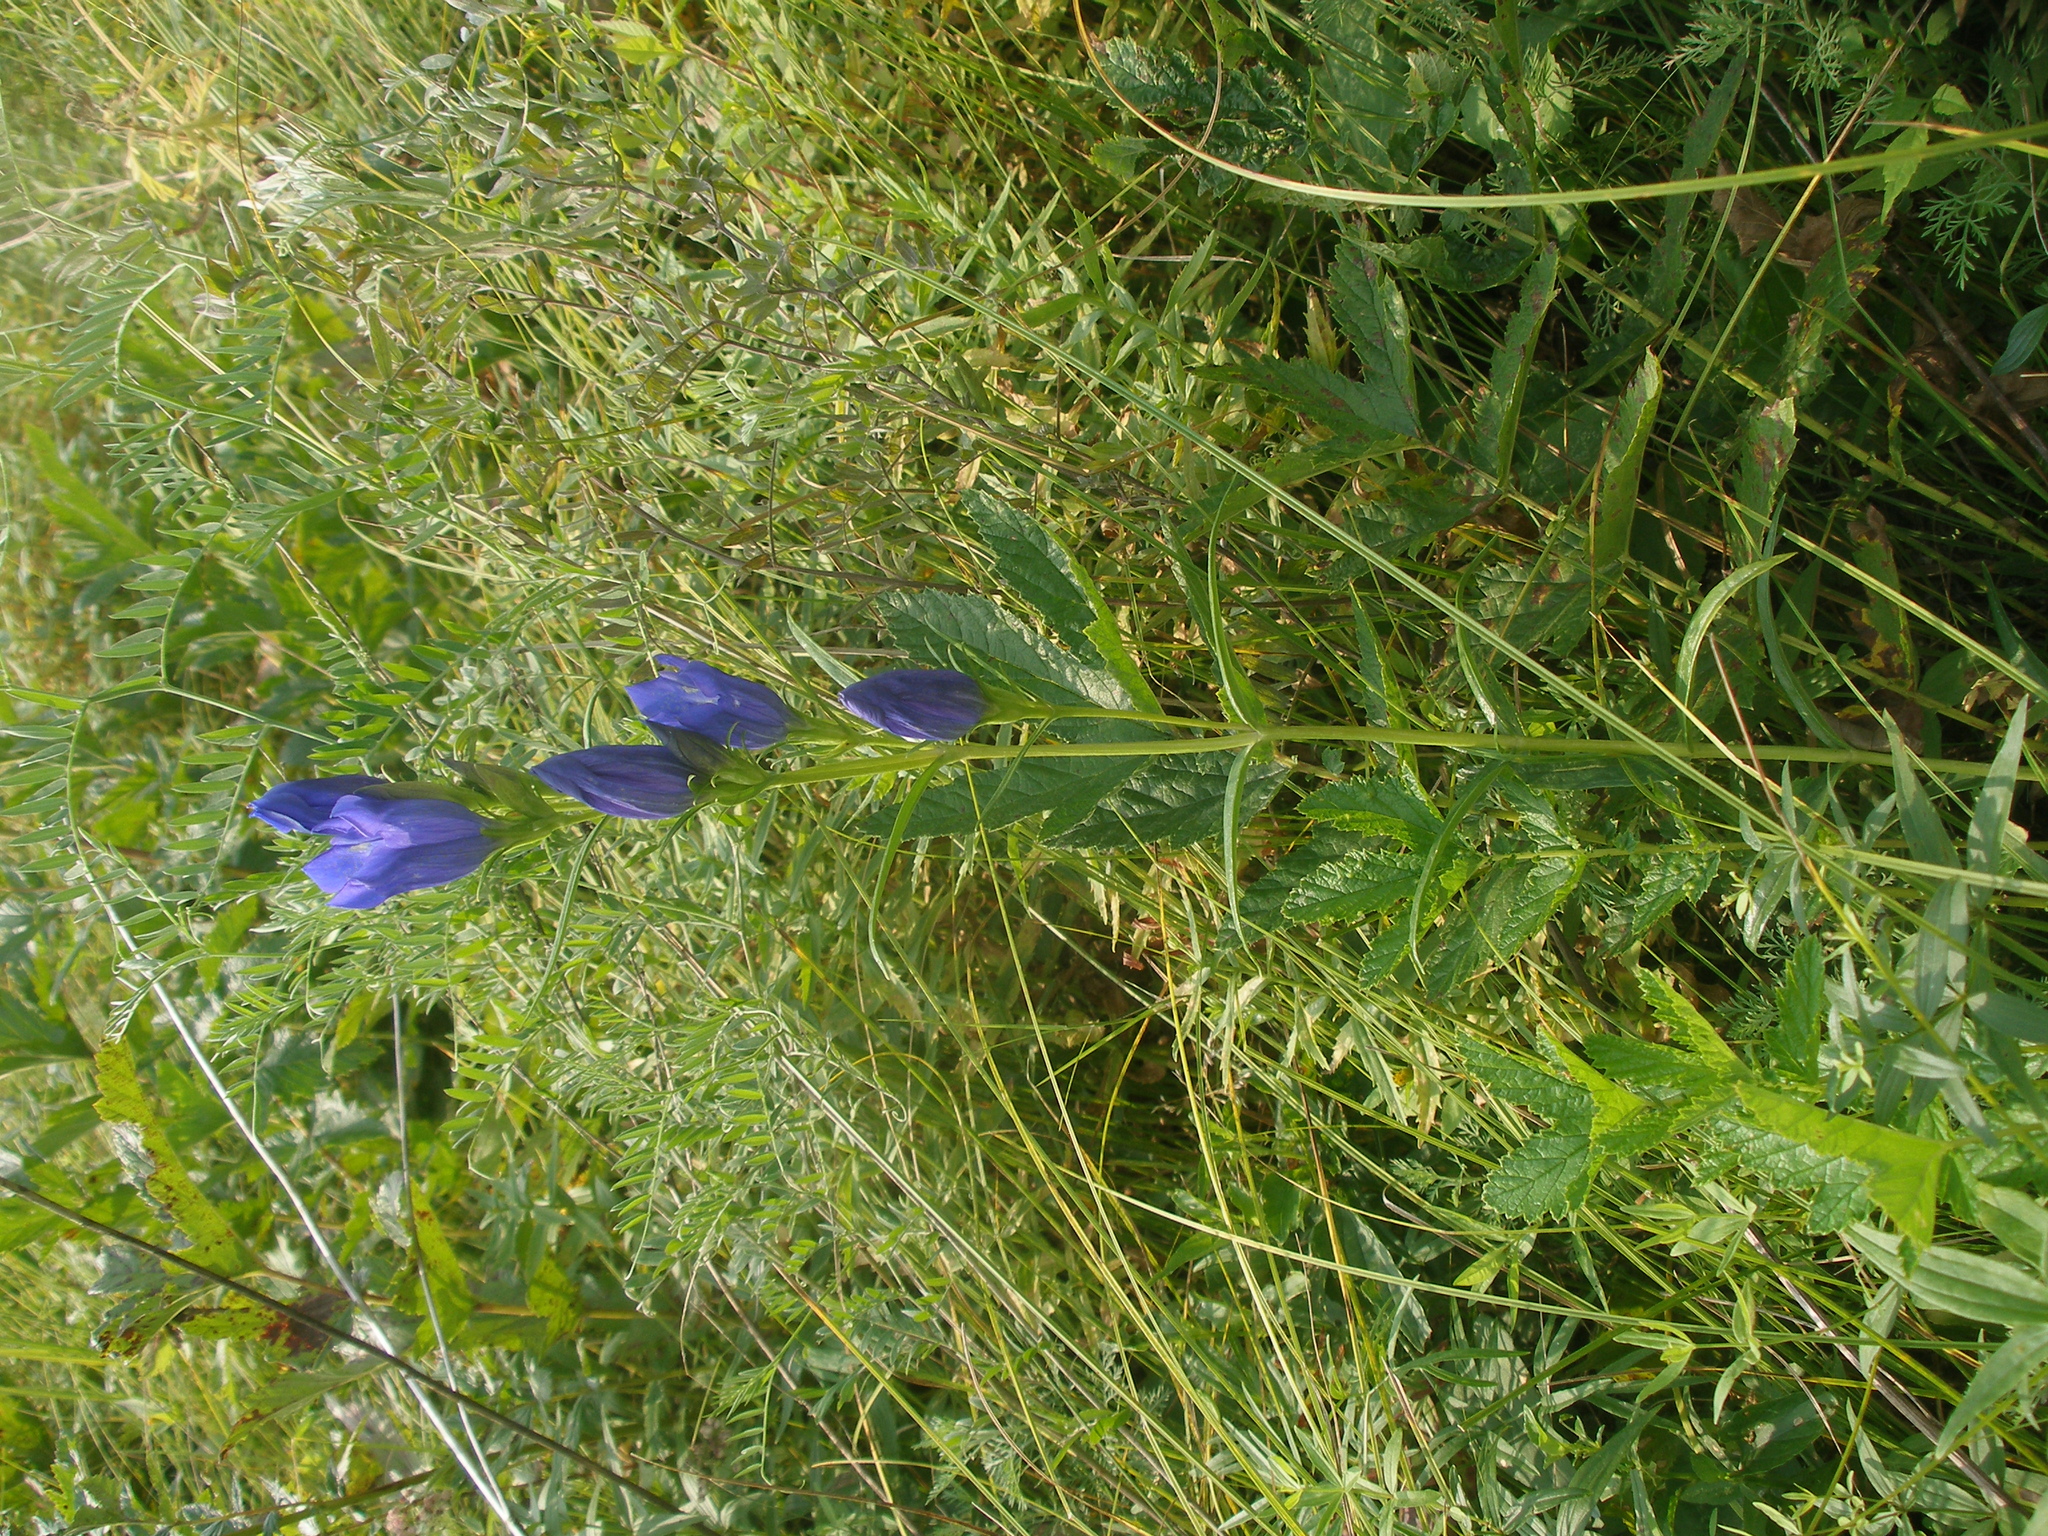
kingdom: Plantae
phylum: Tracheophyta
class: Magnoliopsida
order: Gentianales
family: Gentianaceae
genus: Gentiana
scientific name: Gentiana pneumonanthe
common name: Marsh gentian
